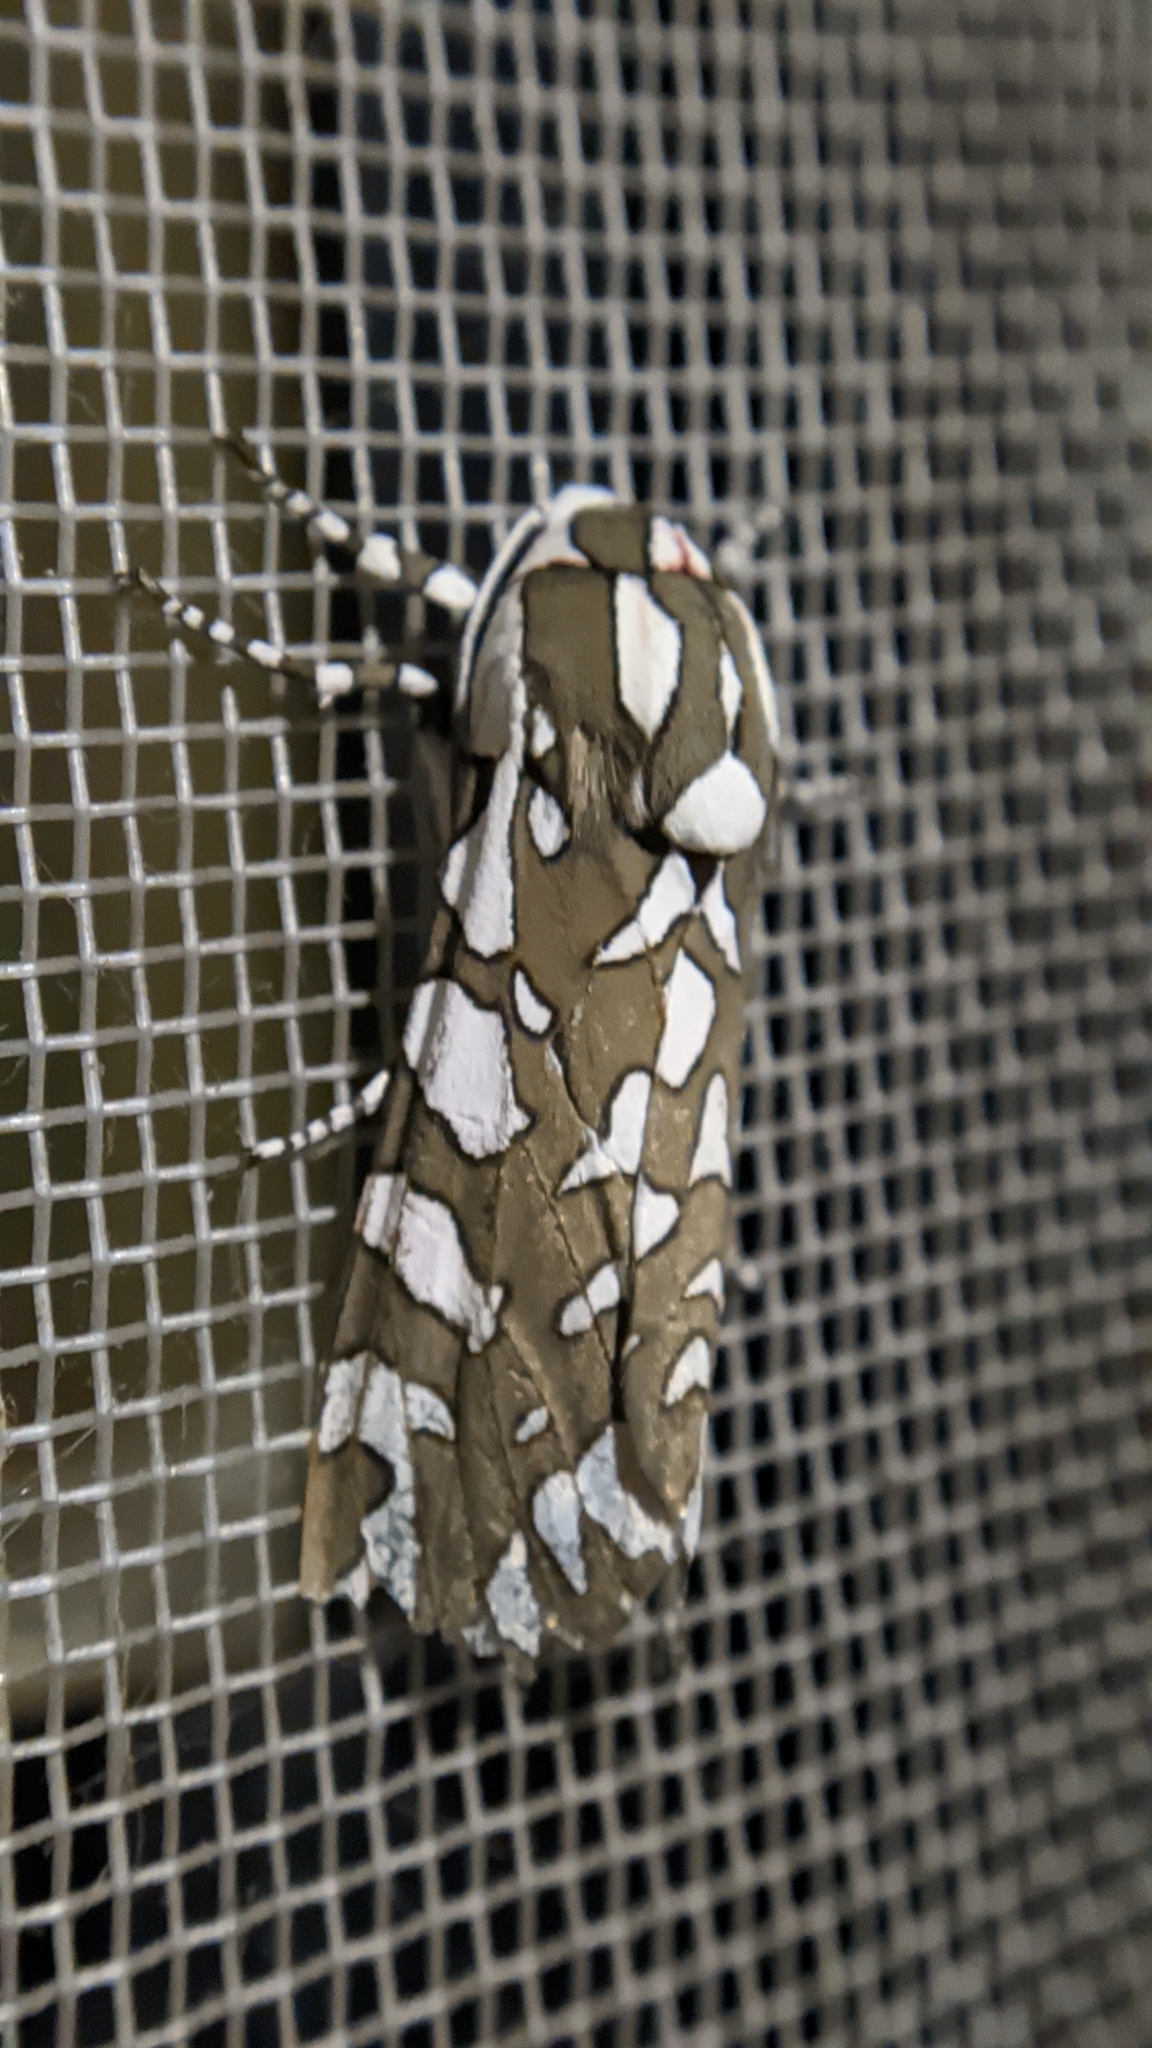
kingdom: Animalia
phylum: Arthropoda
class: Insecta
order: Lepidoptera
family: Erebidae
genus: Arachnis
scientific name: Arachnis dilecta
